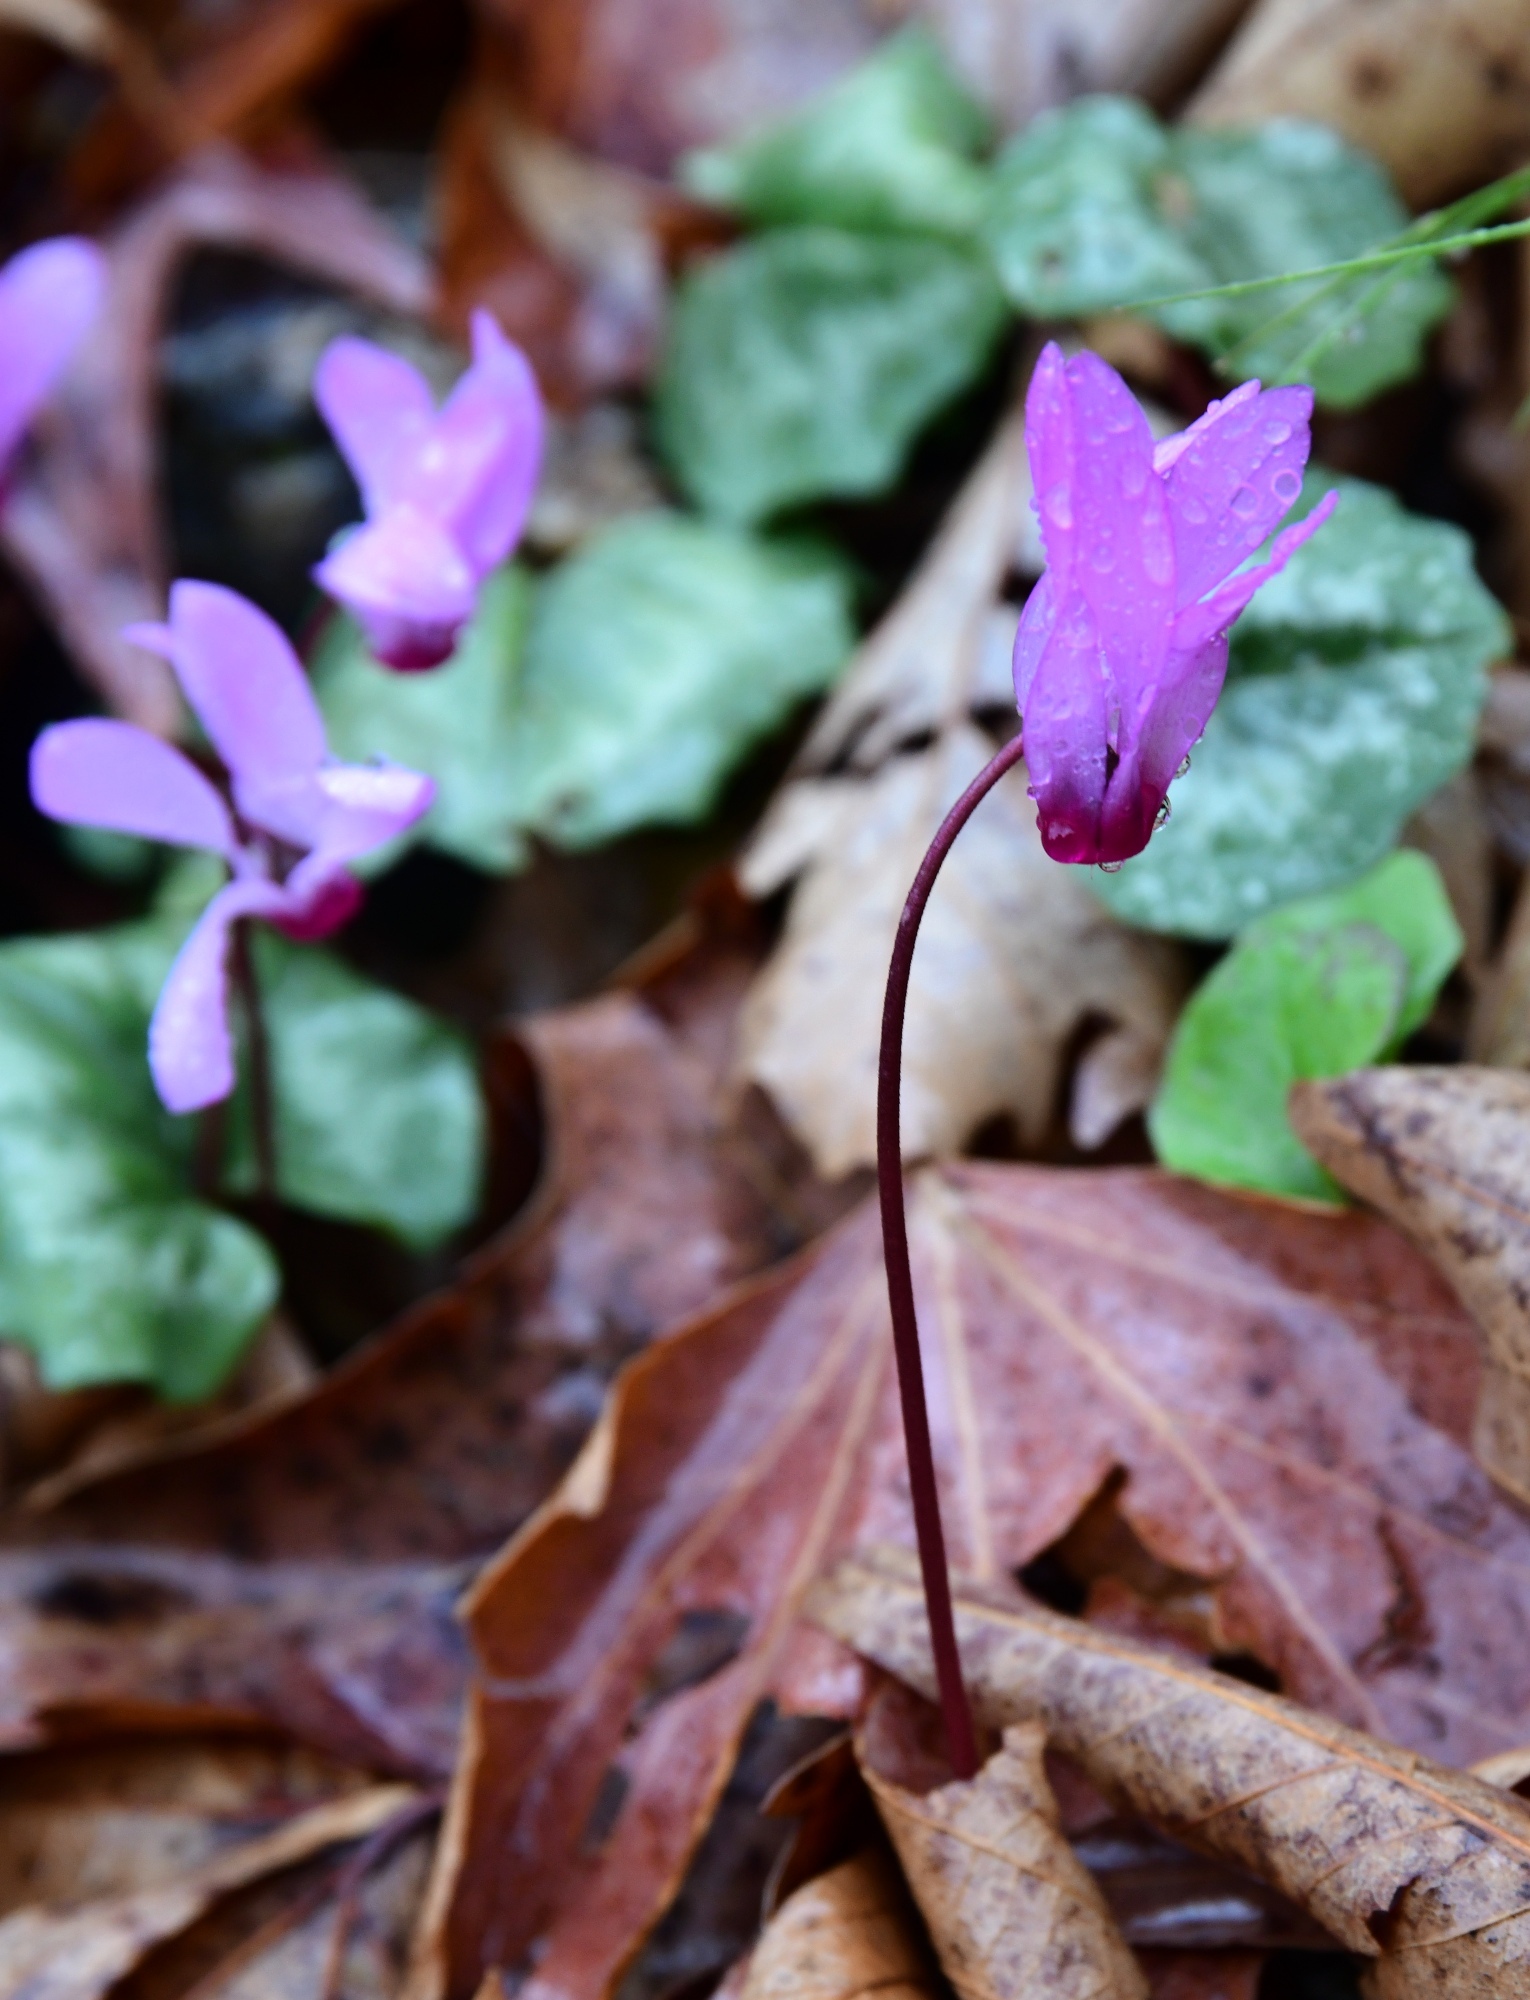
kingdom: Plantae
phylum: Tracheophyta
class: Magnoliopsida
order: Ericales
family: Primulaceae
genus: Cyclamen
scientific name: Cyclamen repandum
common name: Spring sowbread
